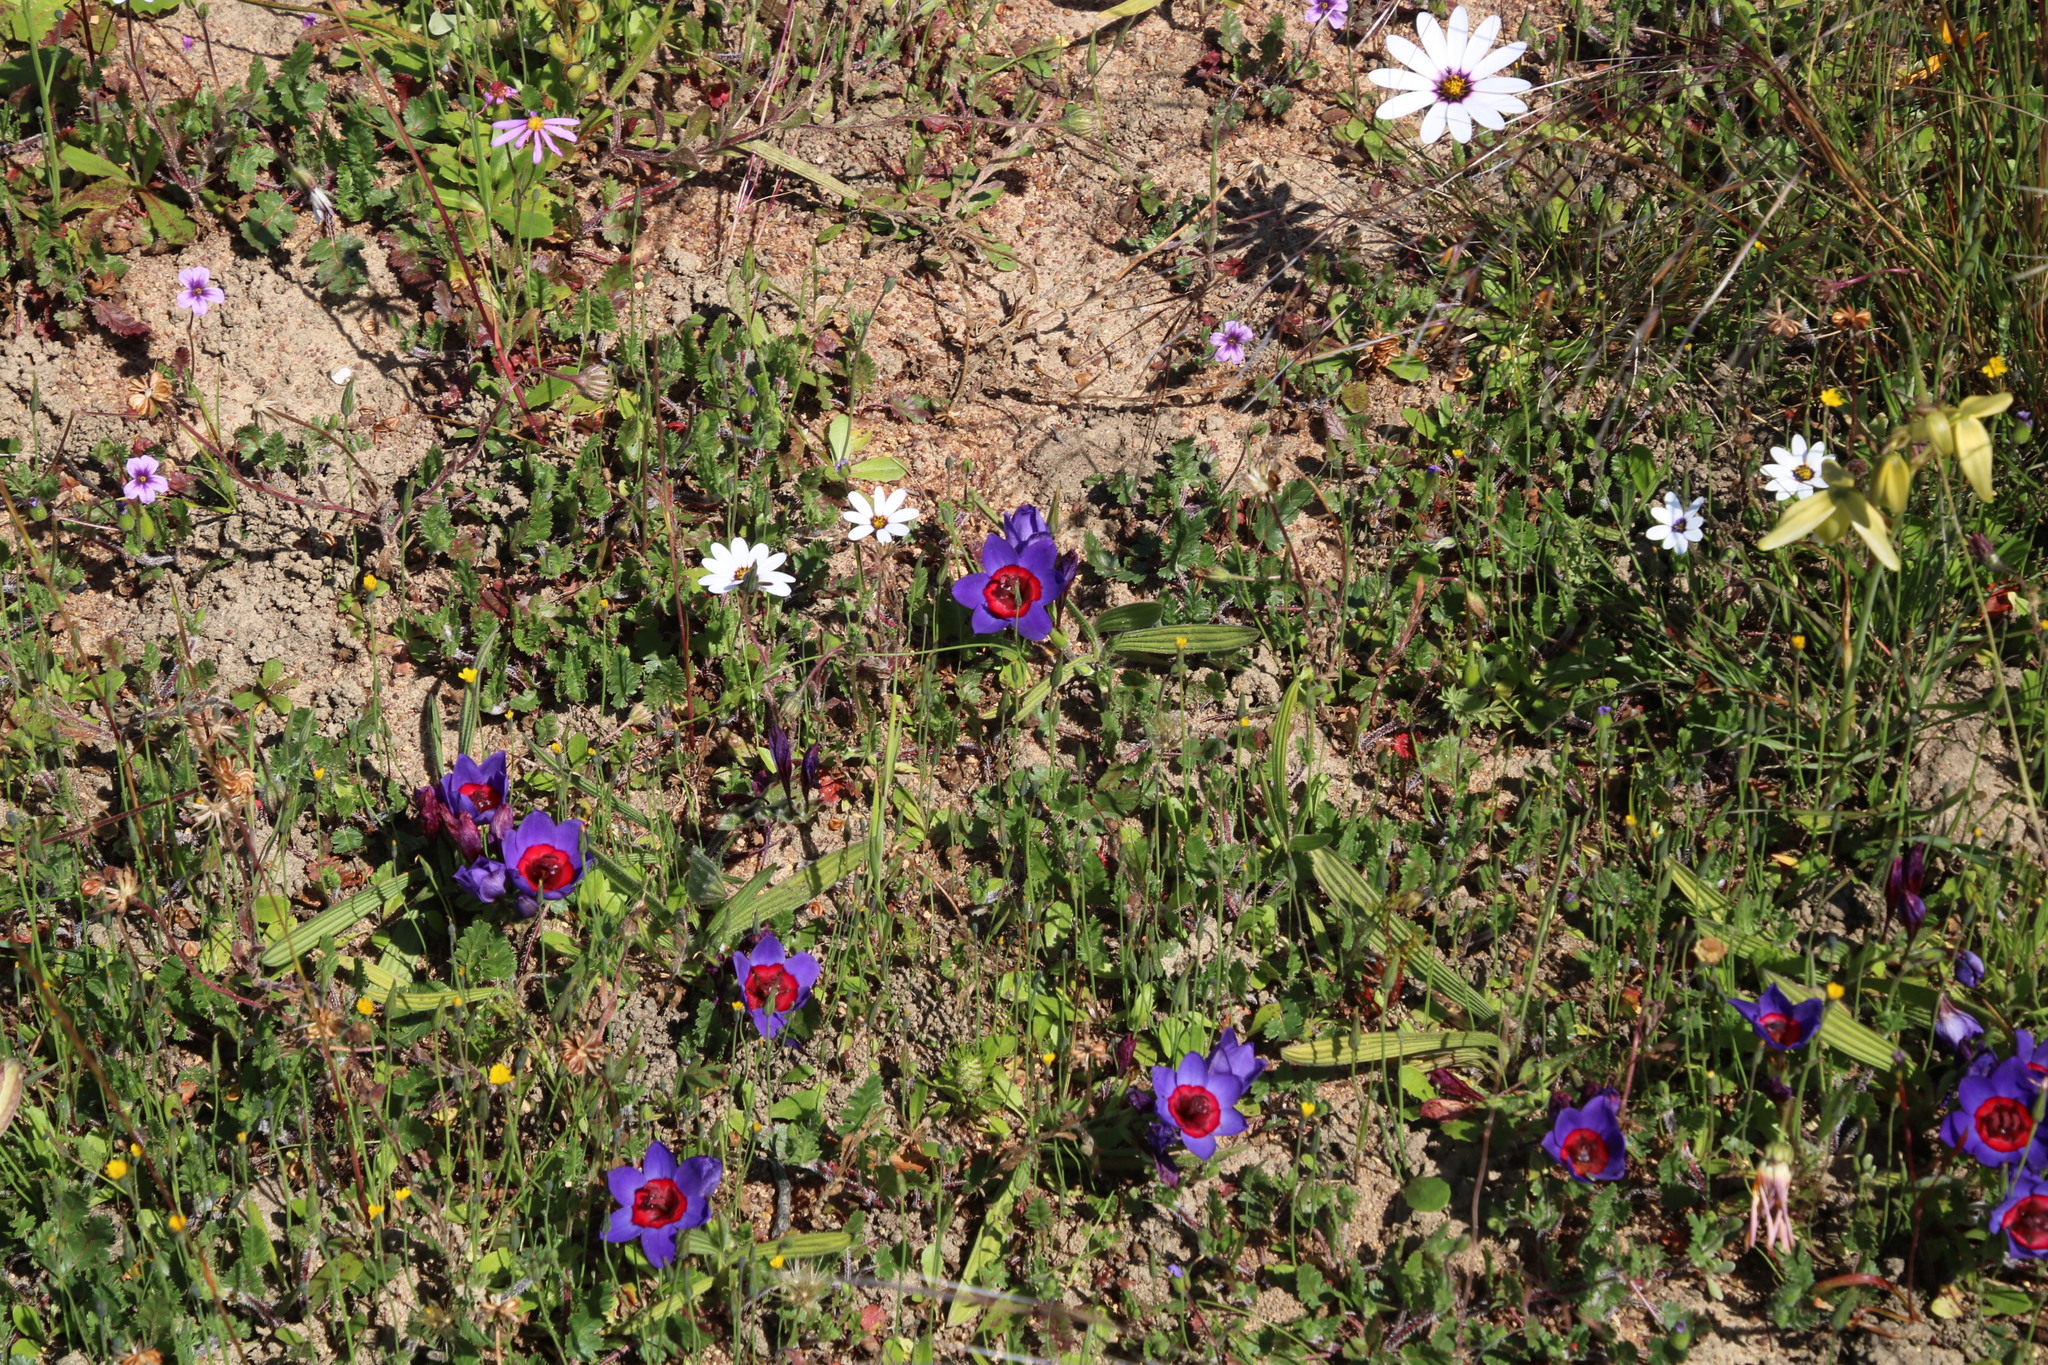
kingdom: Plantae
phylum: Tracheophyta
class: Liliopsida
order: Asparagales
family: Iridaceae
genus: Babiana
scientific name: Babiana rubrocyanea
